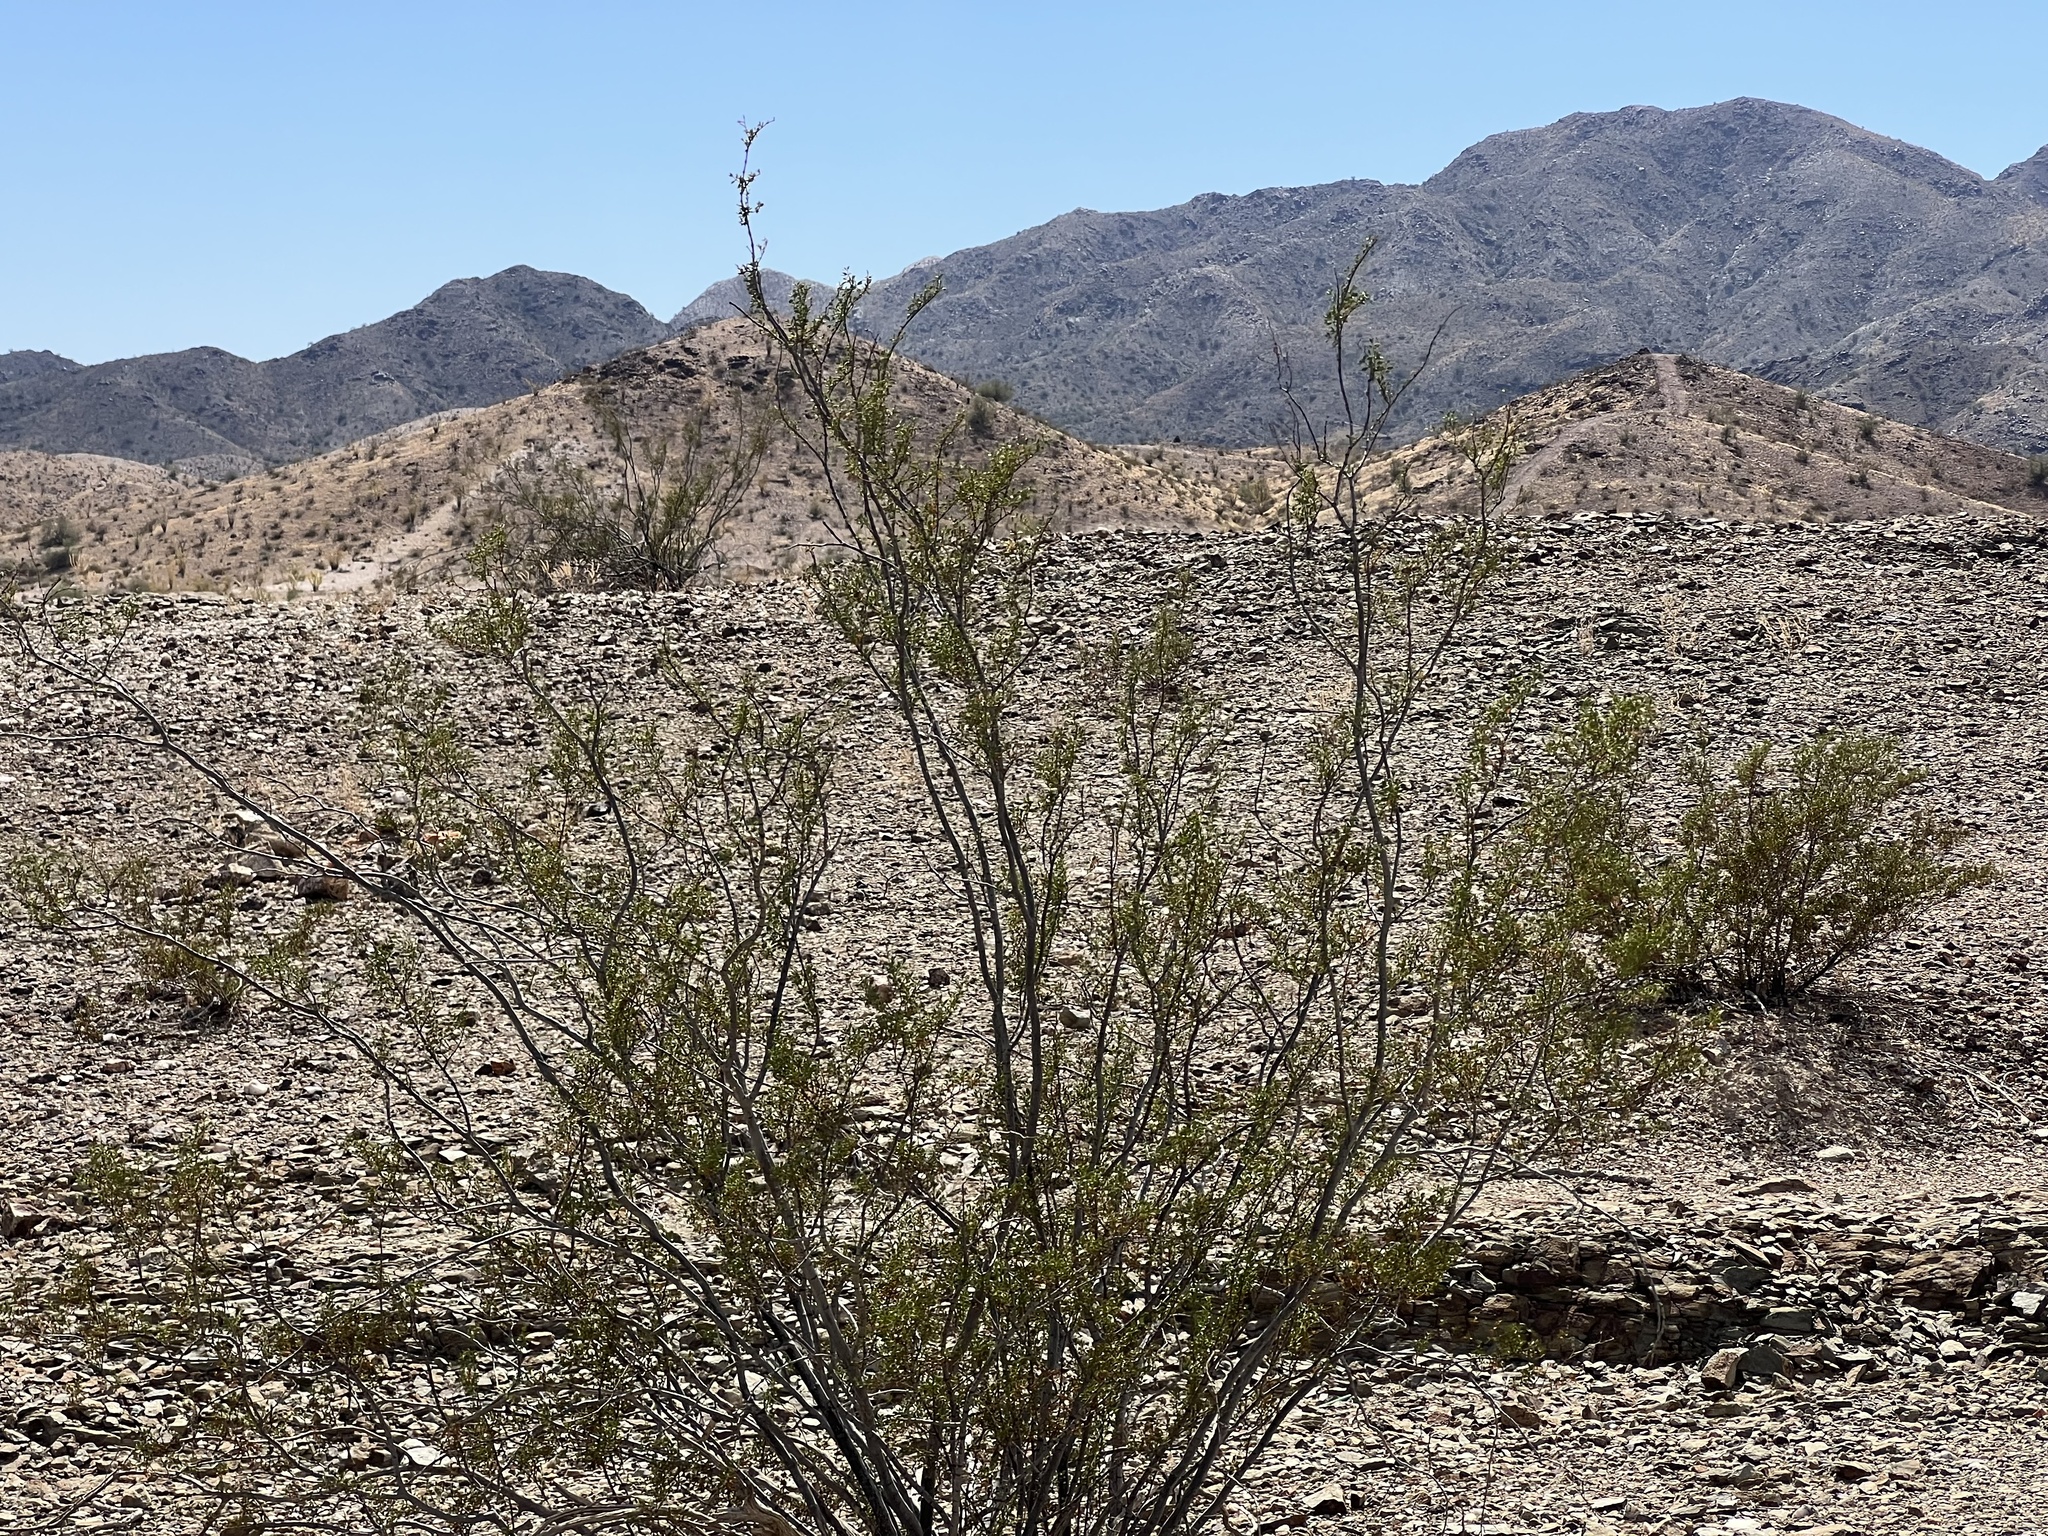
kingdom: Plantae
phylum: Tracheophyta
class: Magnoliopsida
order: Zygophyllales
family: Zygophyllaceae
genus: Larrea
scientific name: Larrea tridentata
